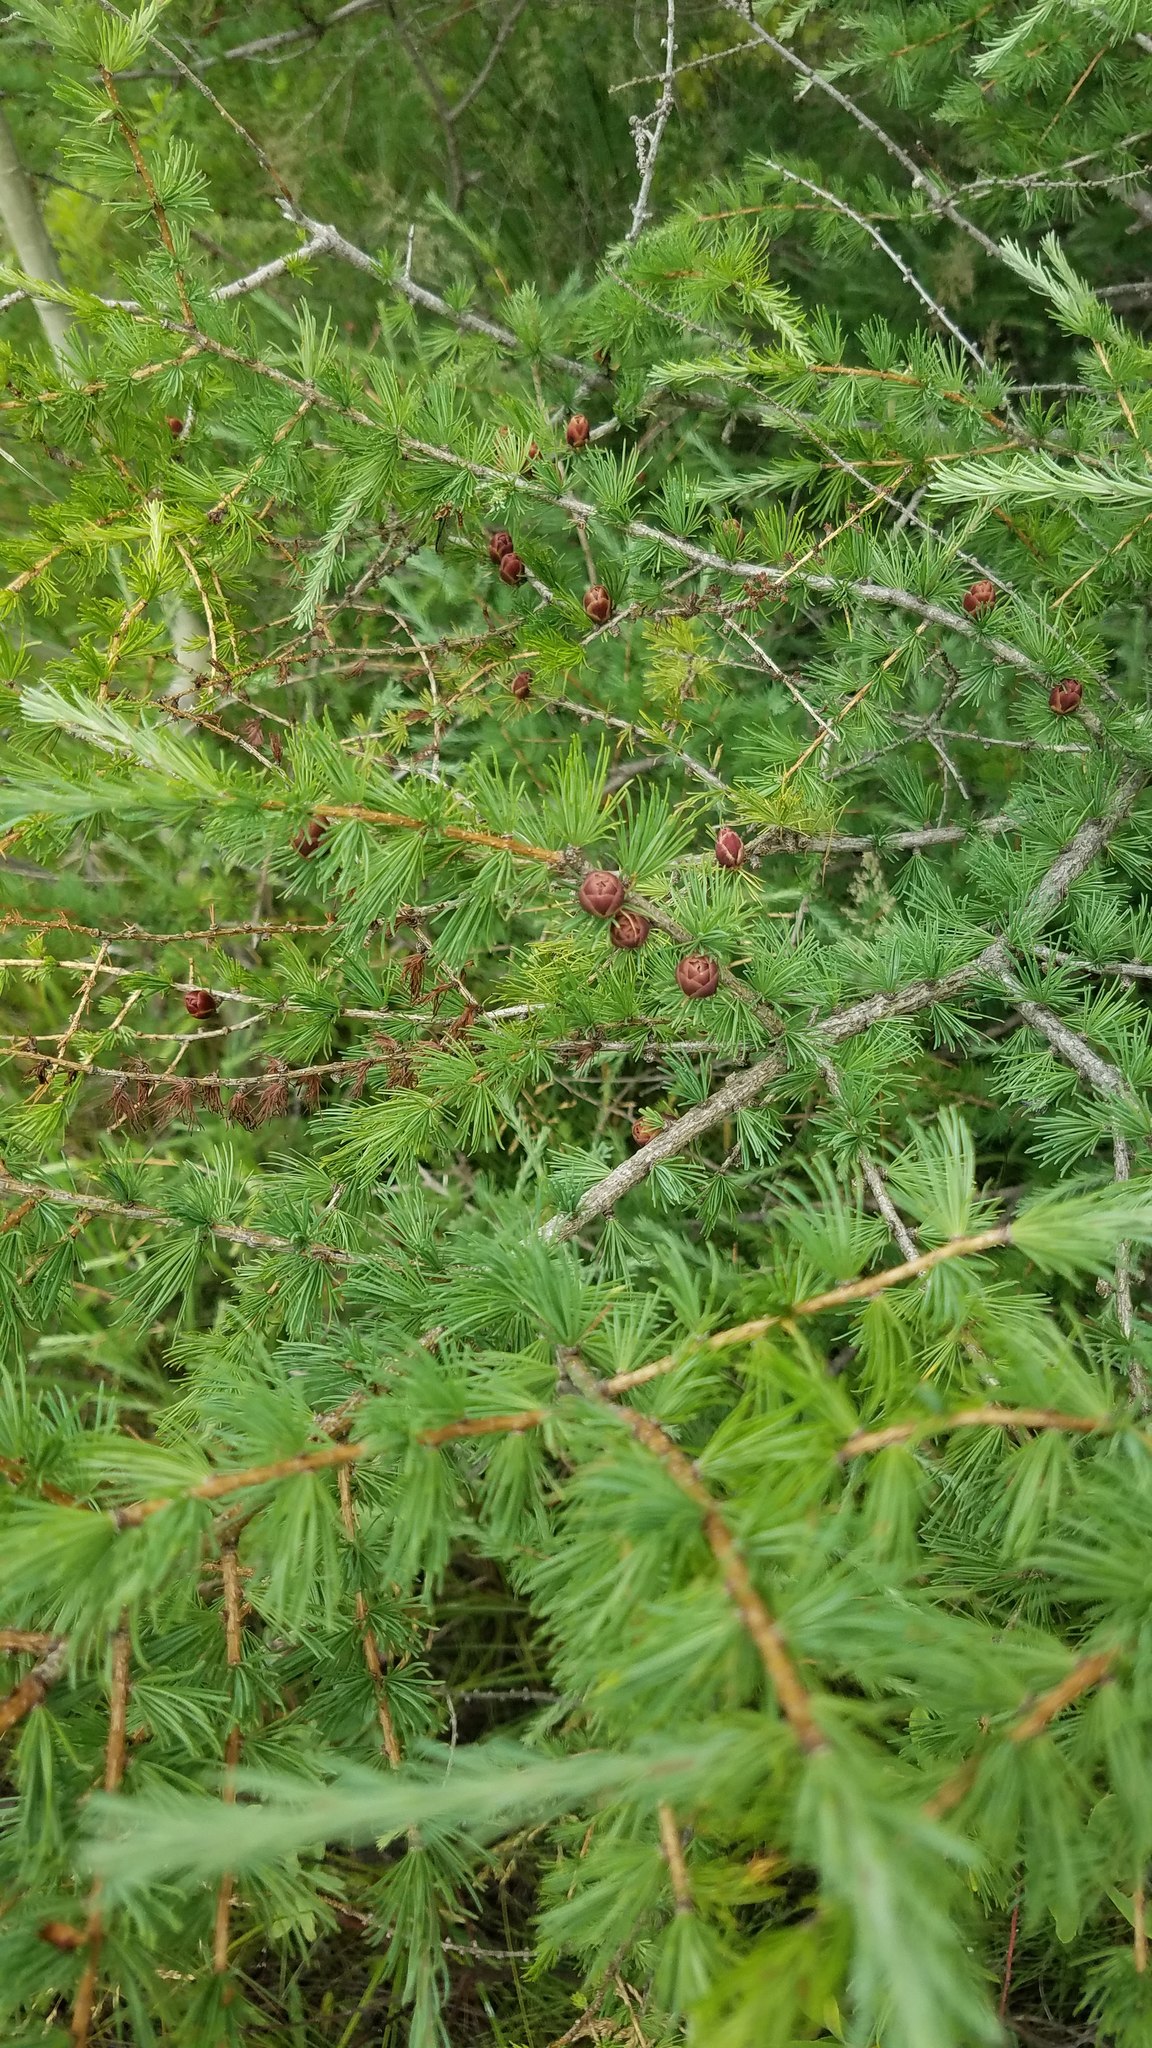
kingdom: Plantae
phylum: Tracheophyta
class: Pinopsida
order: Pinales
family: Pinaceae
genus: Larix
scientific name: Larix laricina
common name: American larch
